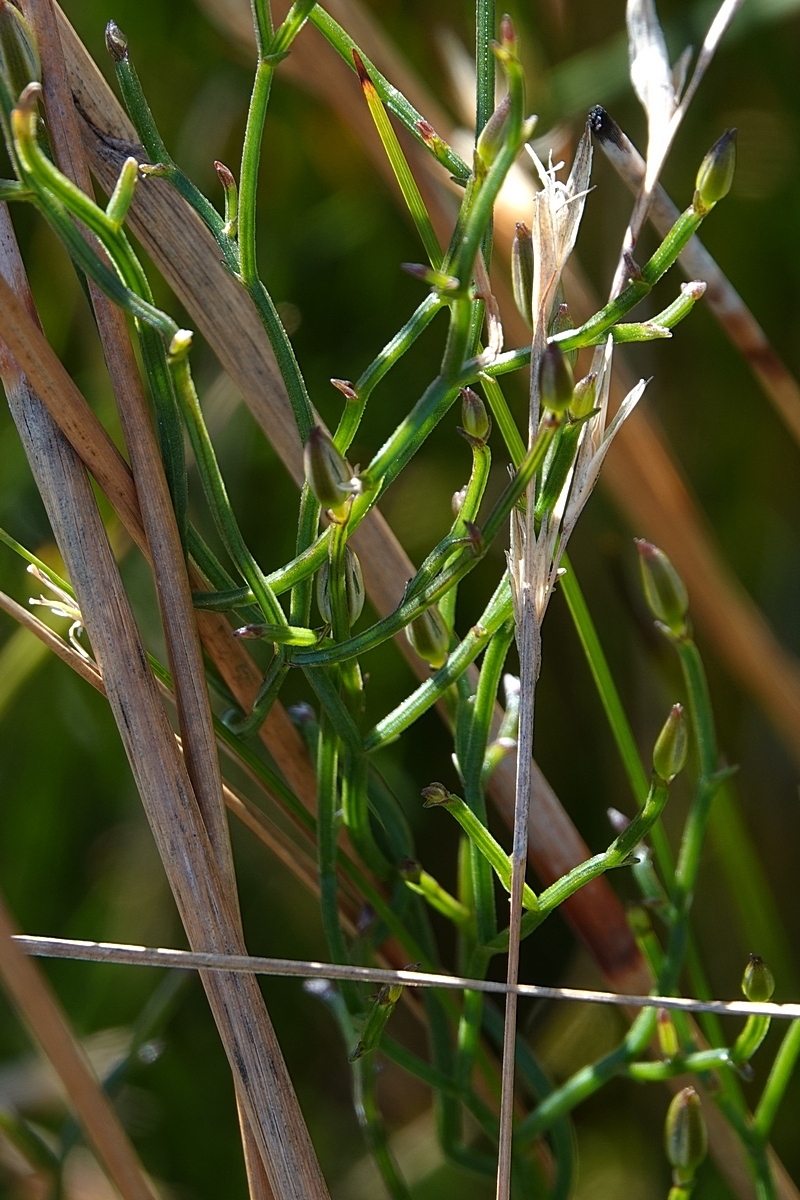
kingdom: Plantae
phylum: Tracheophyta
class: Liliopsida
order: Asparagales
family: Asparagaceae
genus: Thysanotus
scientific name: Thysanotus patersonii
